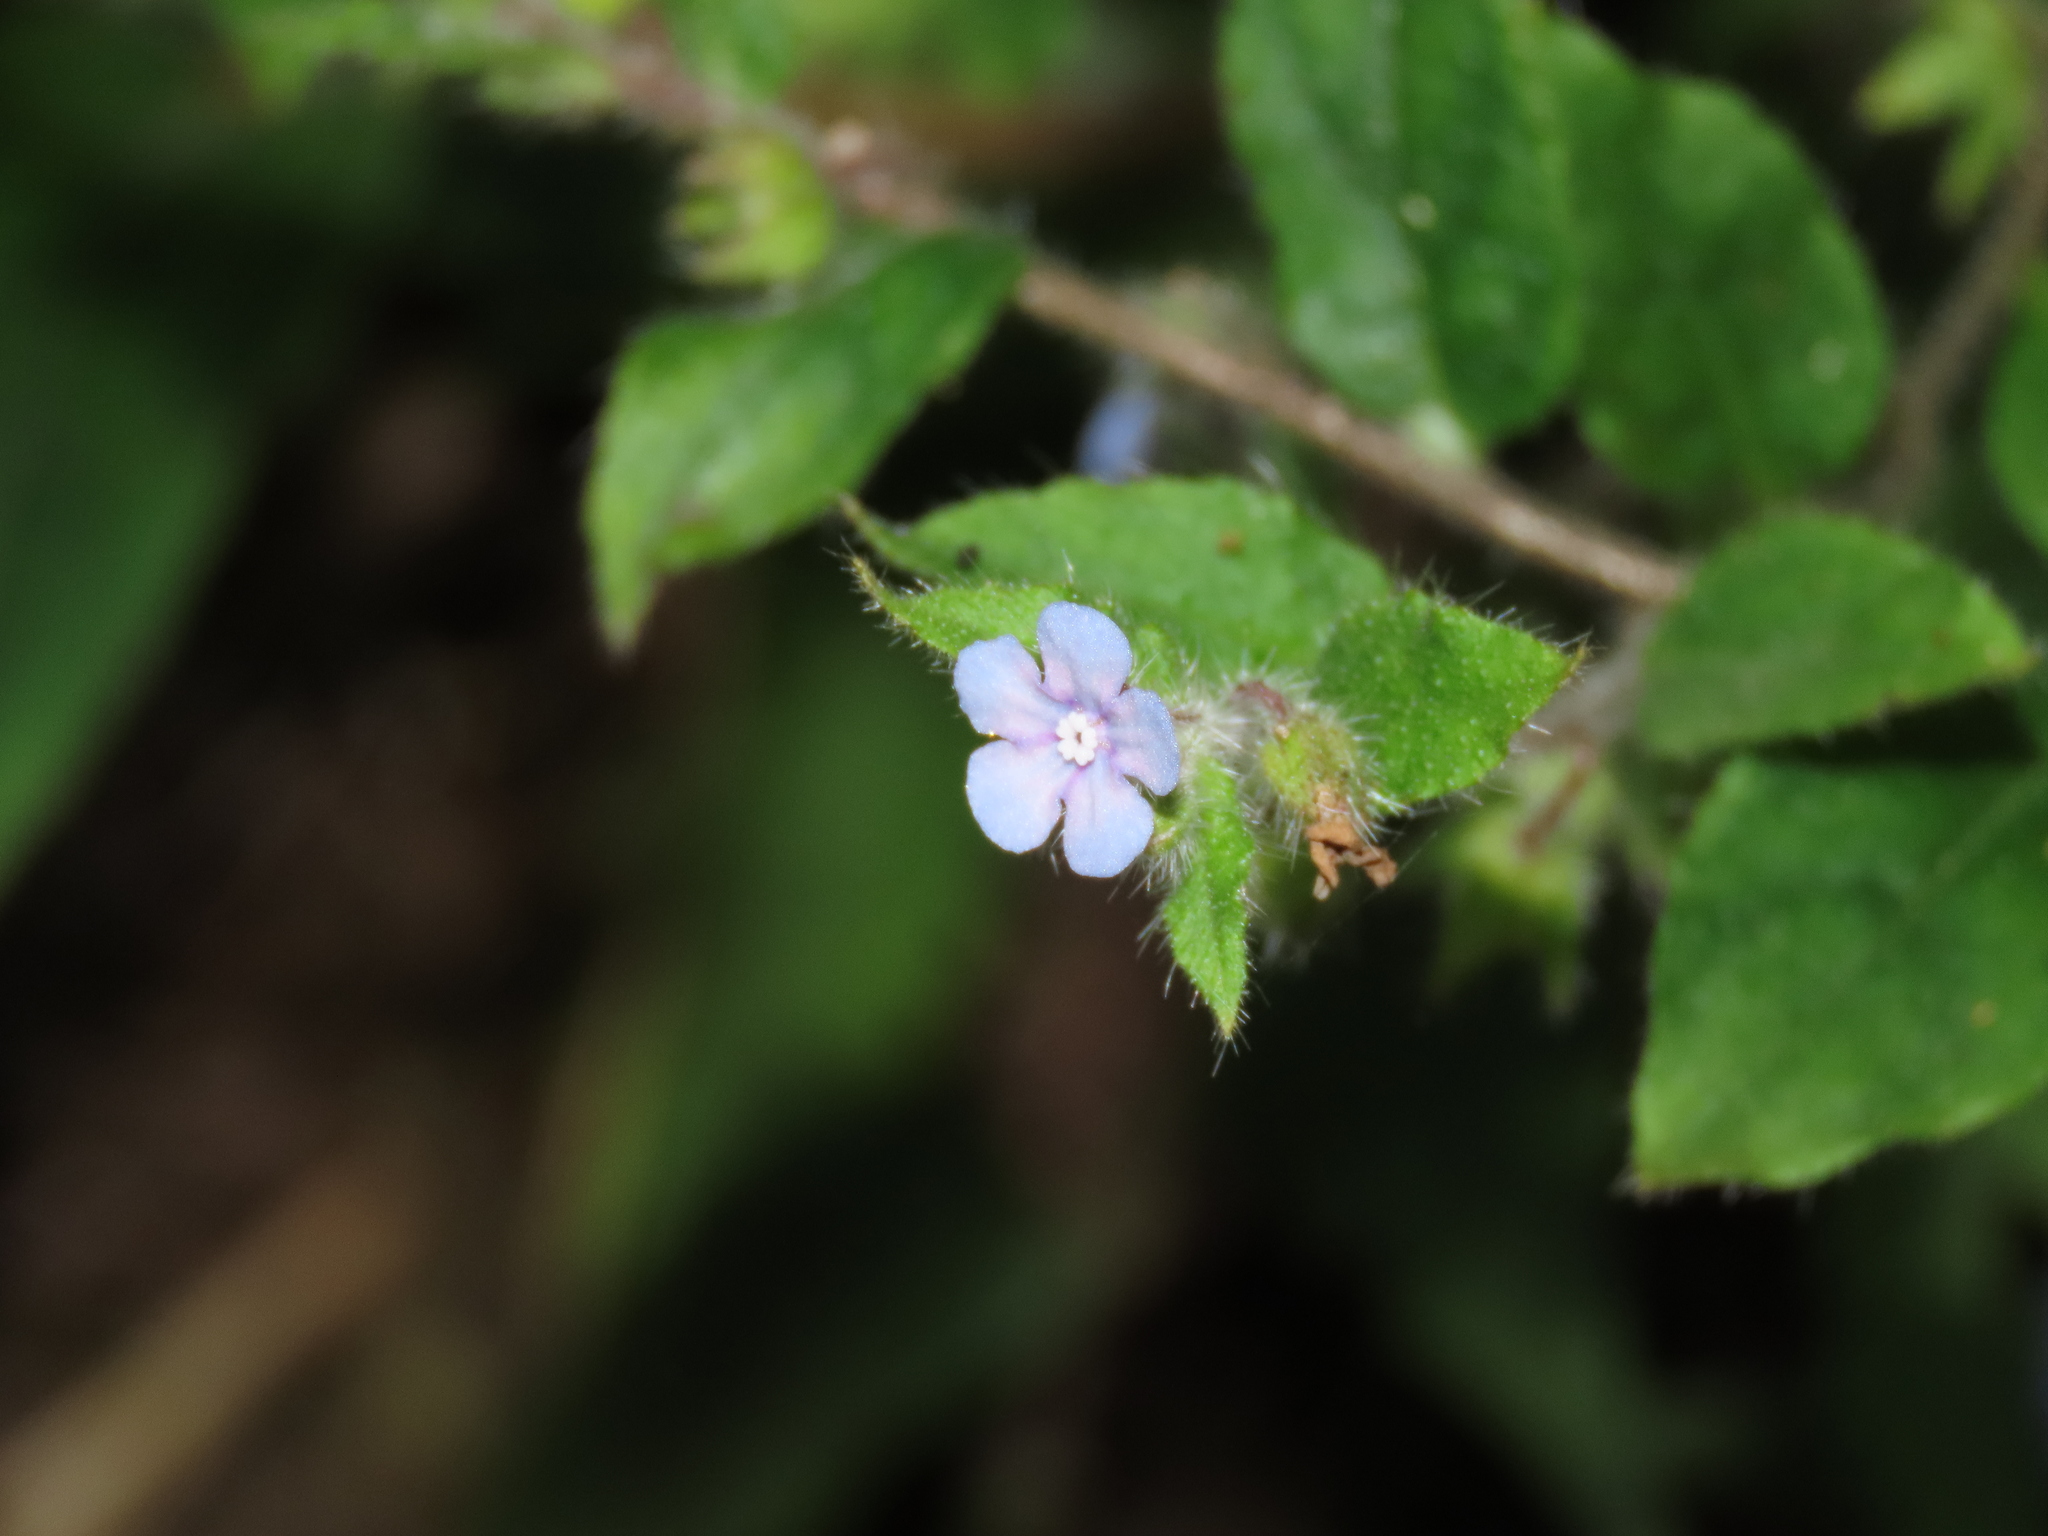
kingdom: Plantae
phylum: Tracheophyta
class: Magnoliopsida
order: Boraginales
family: Boraginaceae
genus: Thyrocarpus
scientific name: Thyrocarpus sampsonii
